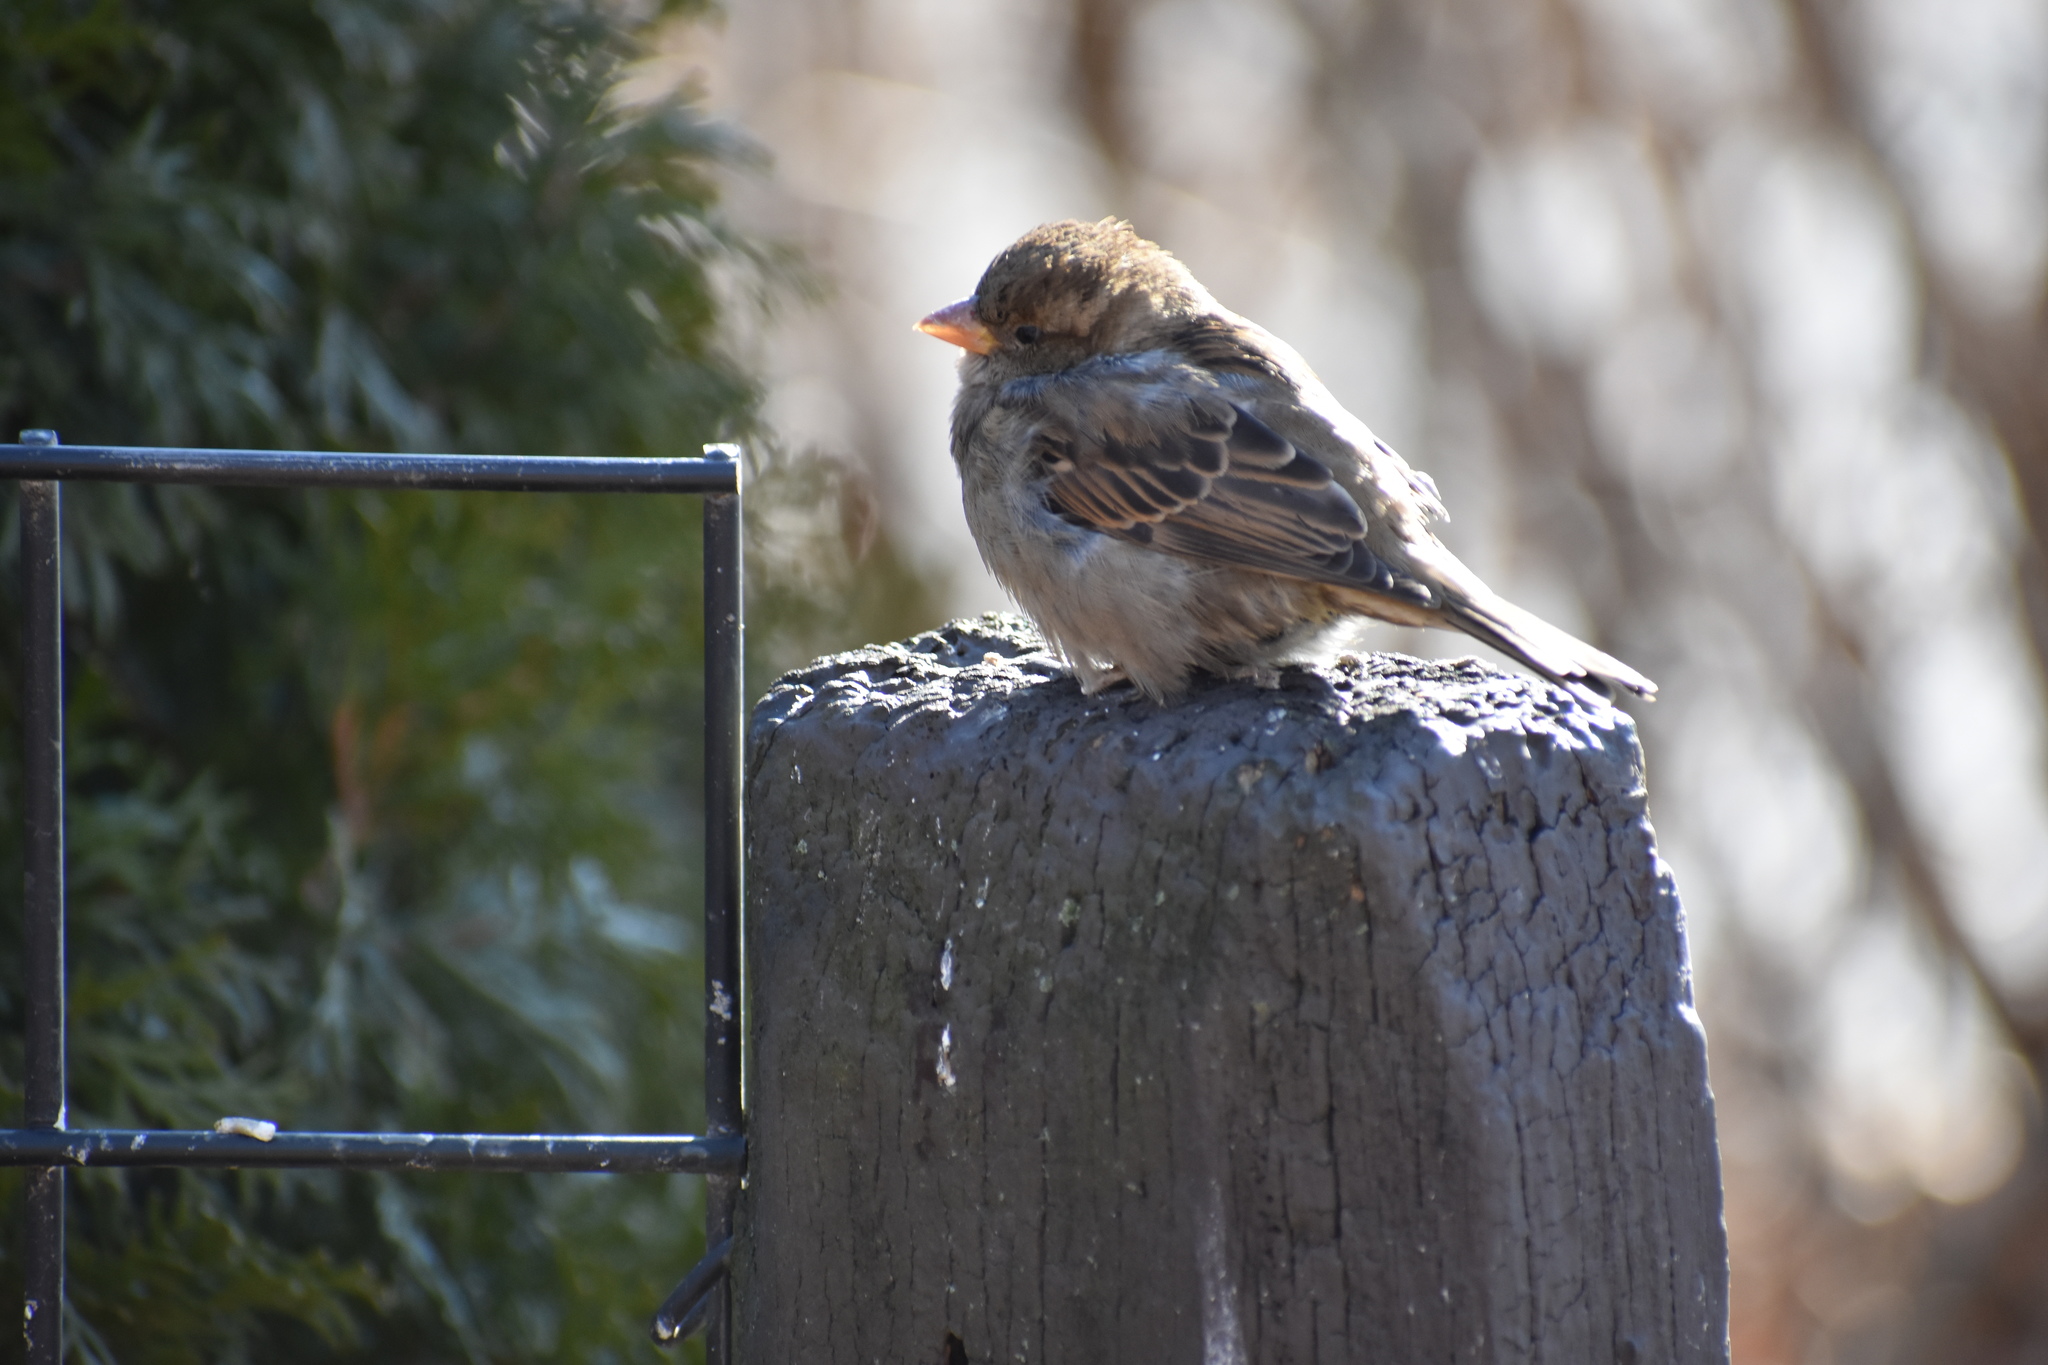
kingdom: Animalia
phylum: Chordata
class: Aves
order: Passeriformes
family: Passeridae
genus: Passer
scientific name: Passer domesticus
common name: House sparrow
